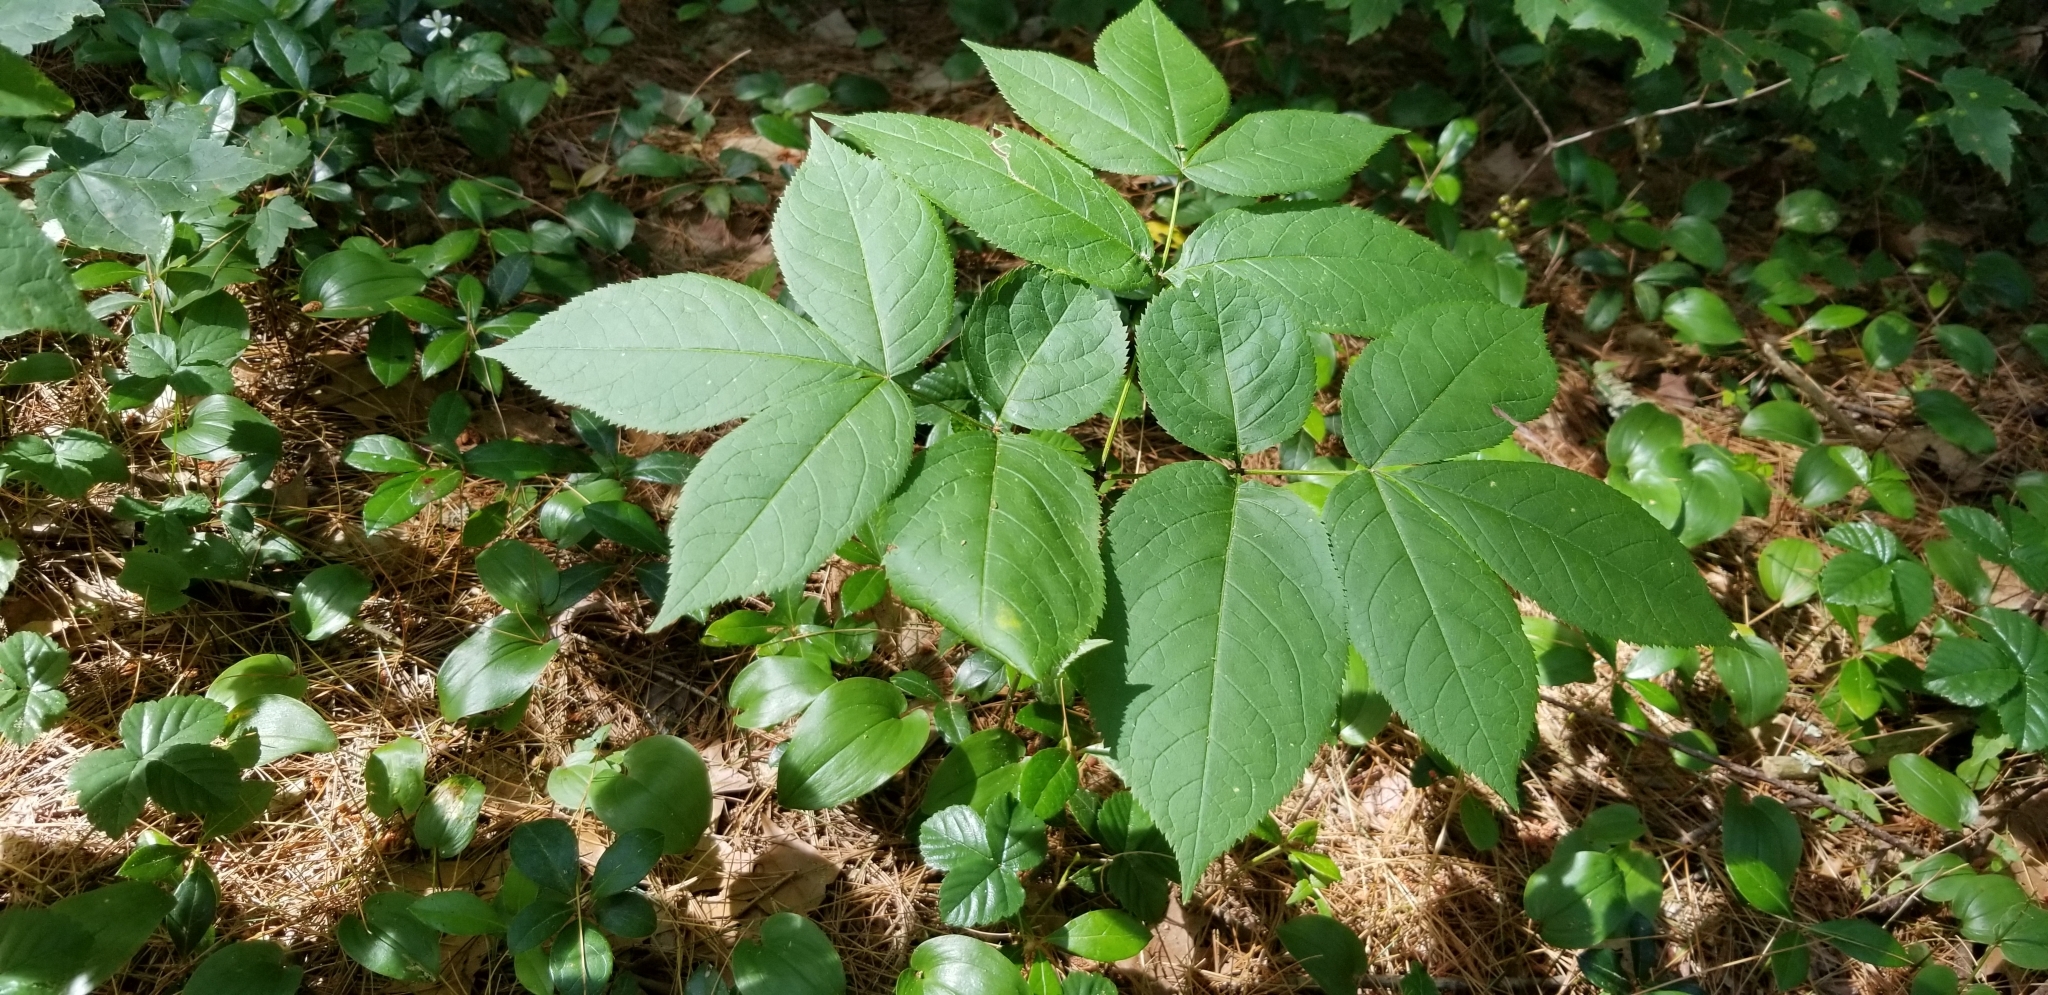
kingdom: Plantae
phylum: Tracheophyta
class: Magnoliopsida
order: Apiales
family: Araliaceae
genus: Aralia
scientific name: Aralia nudicaulis
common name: Wild sarsaparilla
